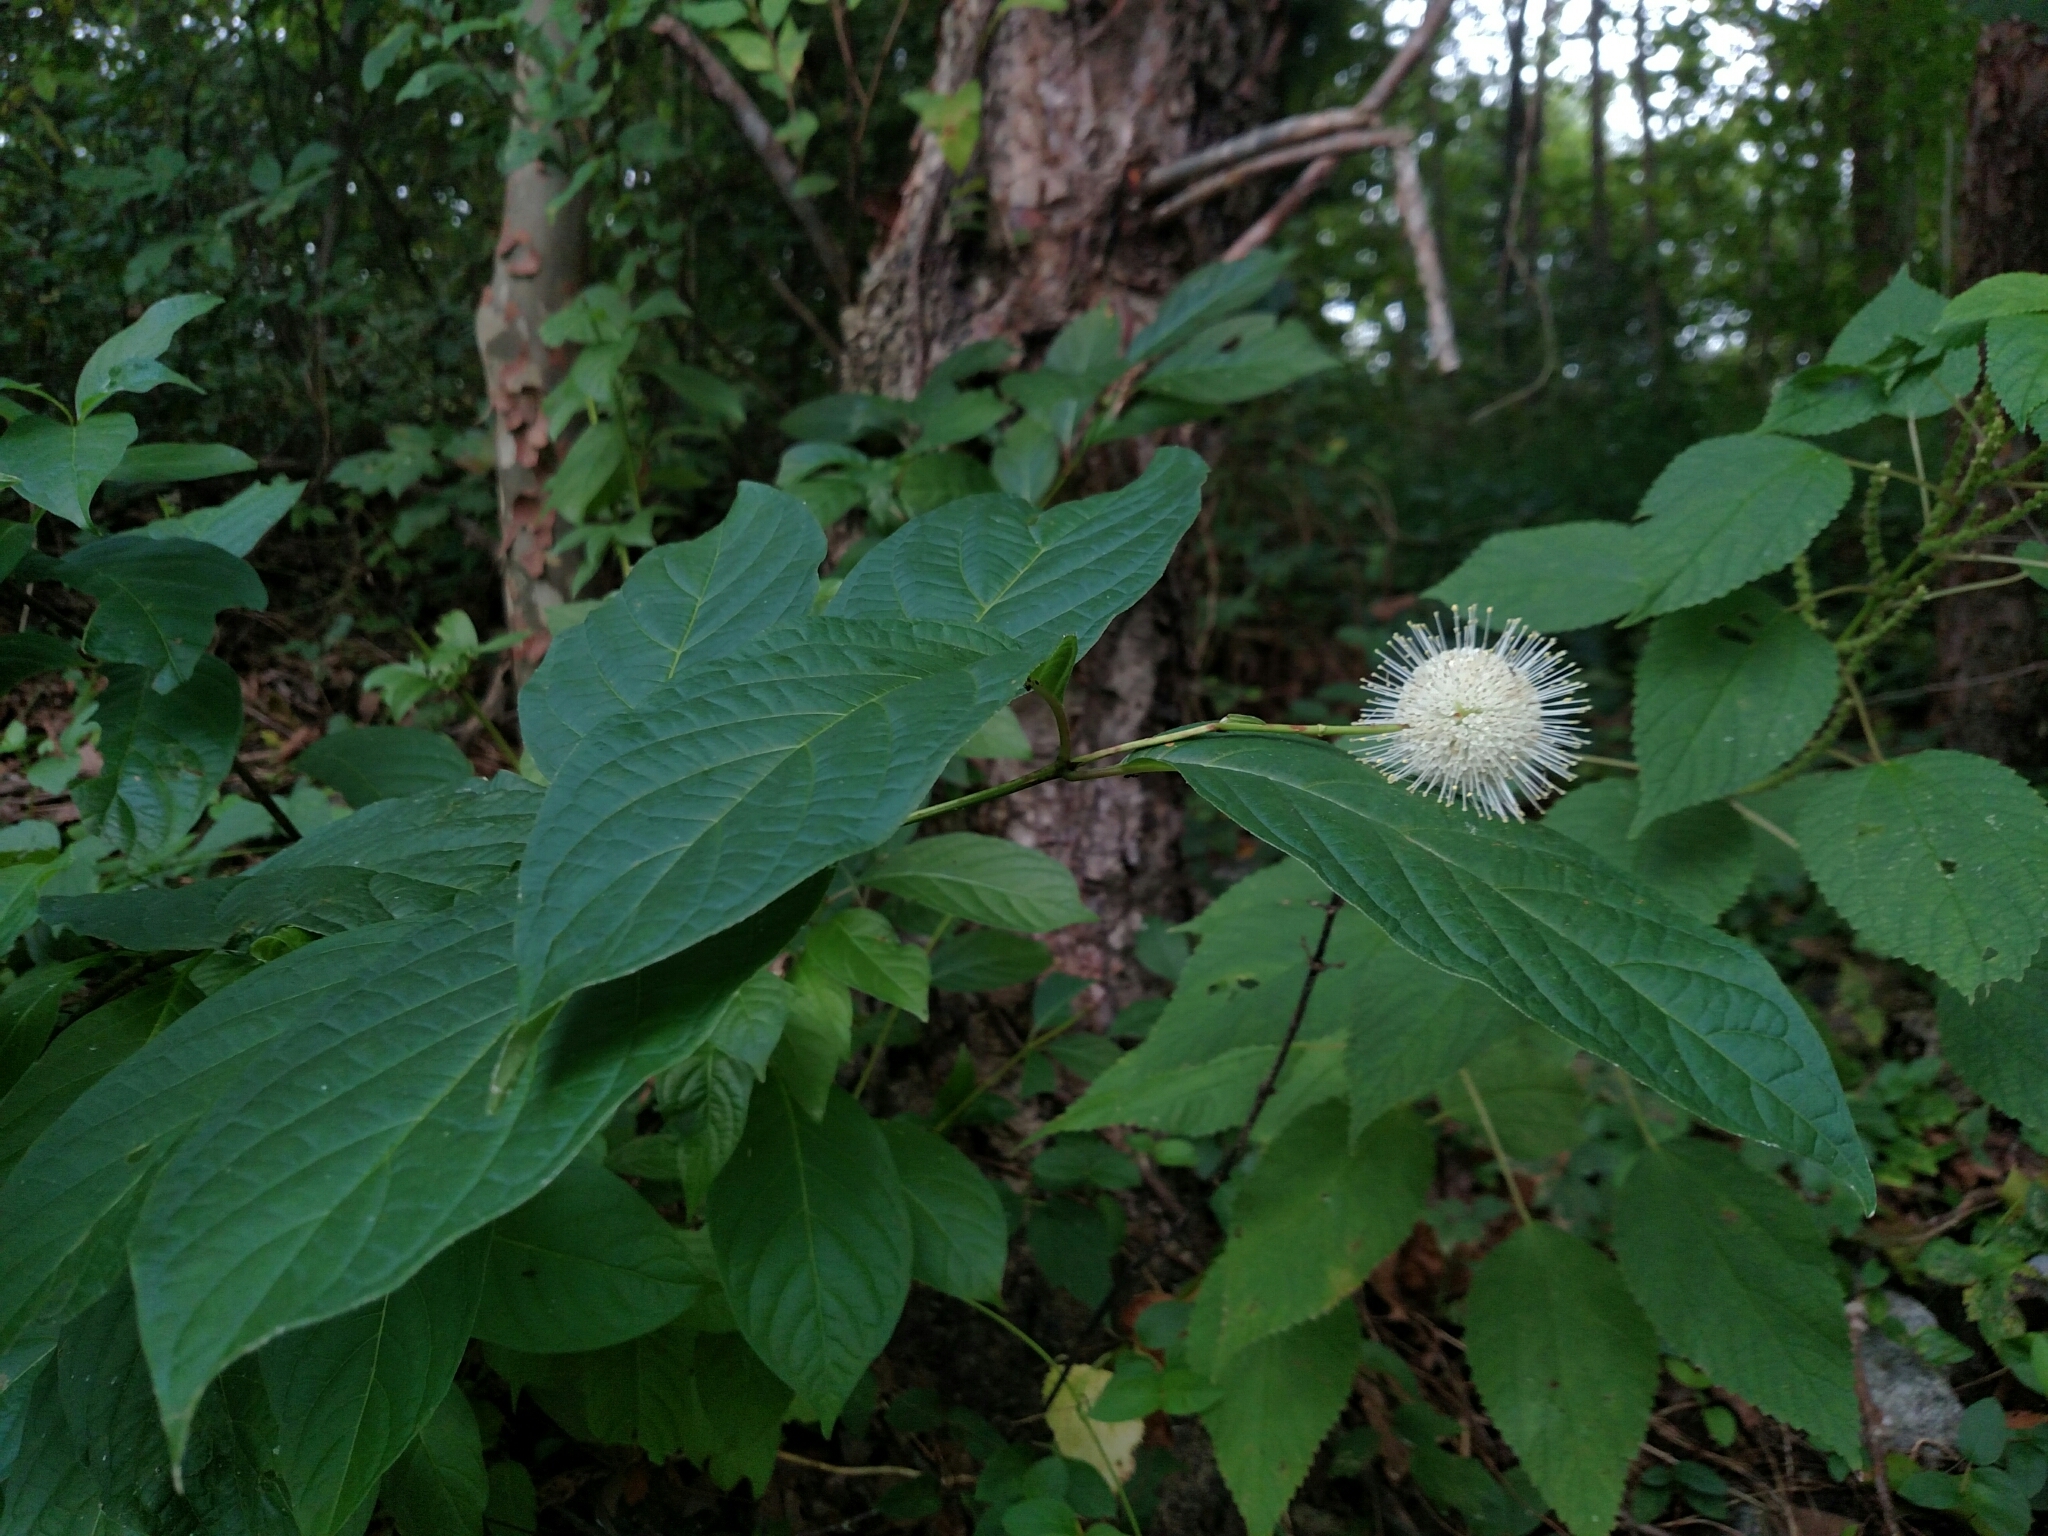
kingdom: Plantae
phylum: Tracheophyta
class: Magnoliopsida
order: Gentianales
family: Rubiaceae
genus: Cephalanthus
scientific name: Cephalanthus occidentalis
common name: Button-willow
